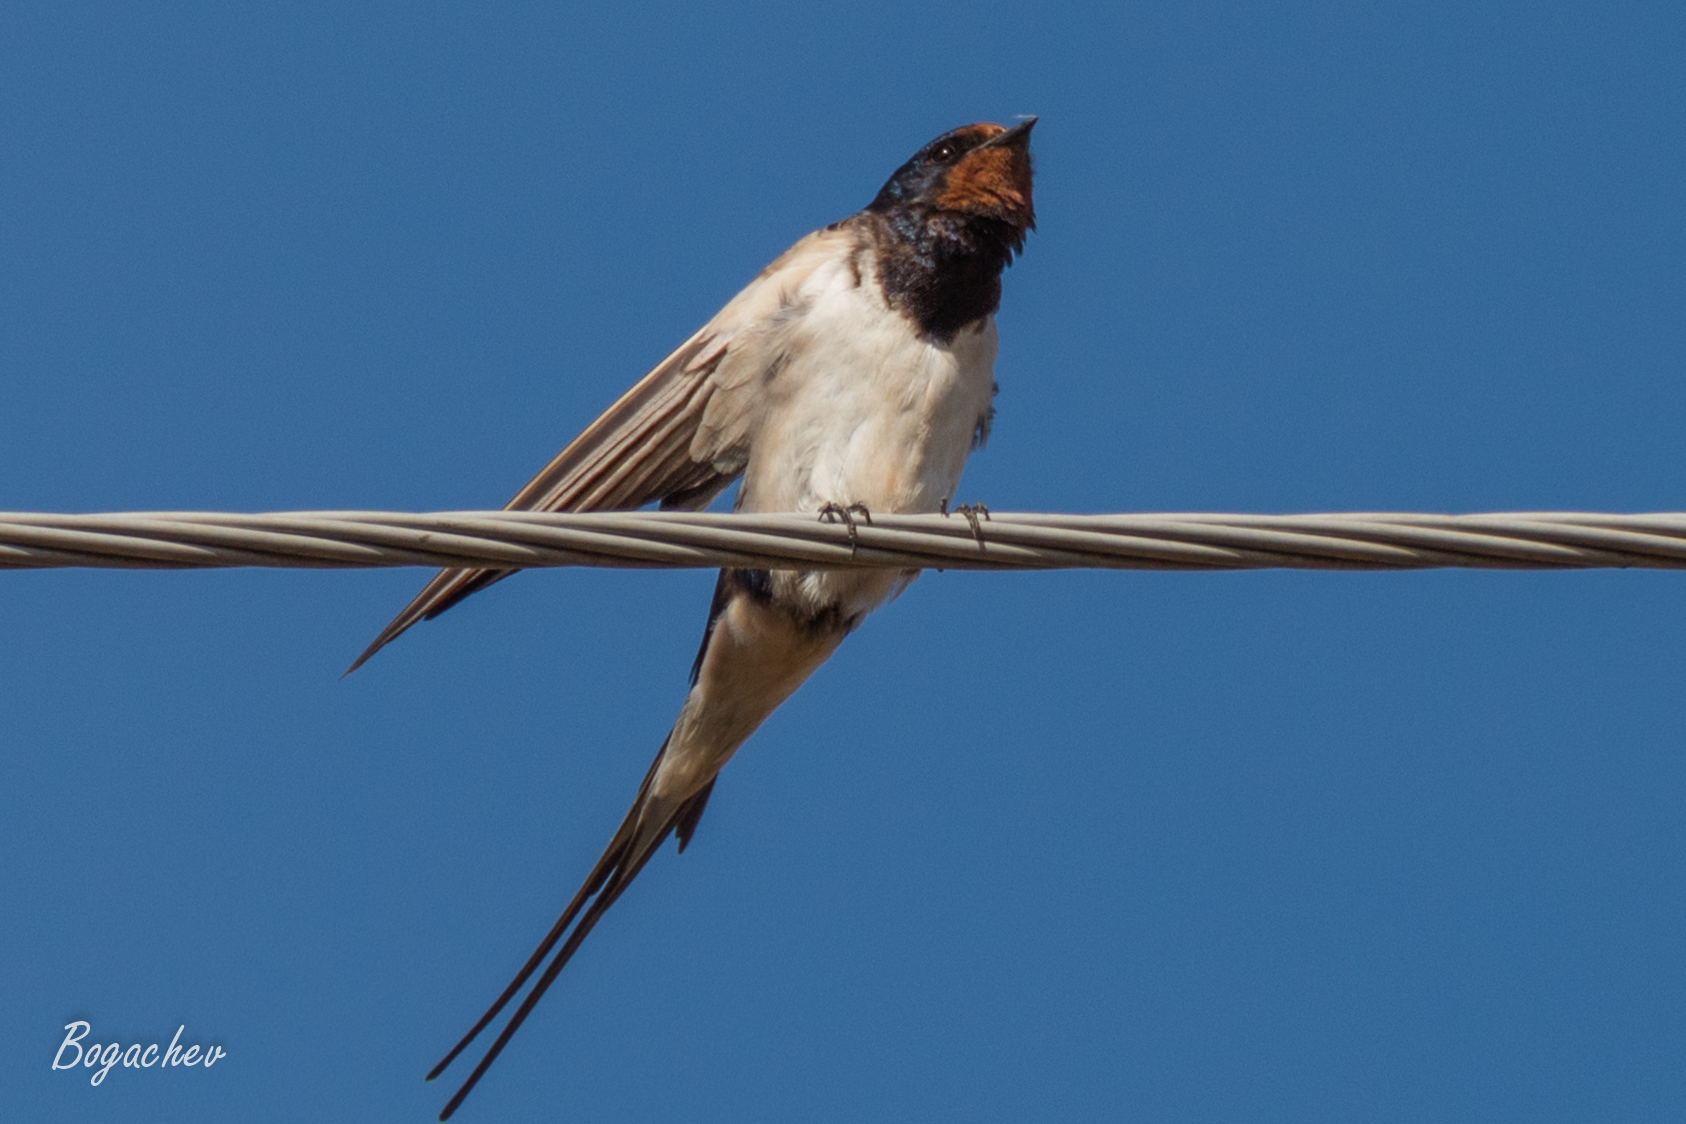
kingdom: Animalia
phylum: Chordata
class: Aves
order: Passeriformes
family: Hirundinidae
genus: Hirundo
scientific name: Hirundo rustica
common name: Barn swallow
